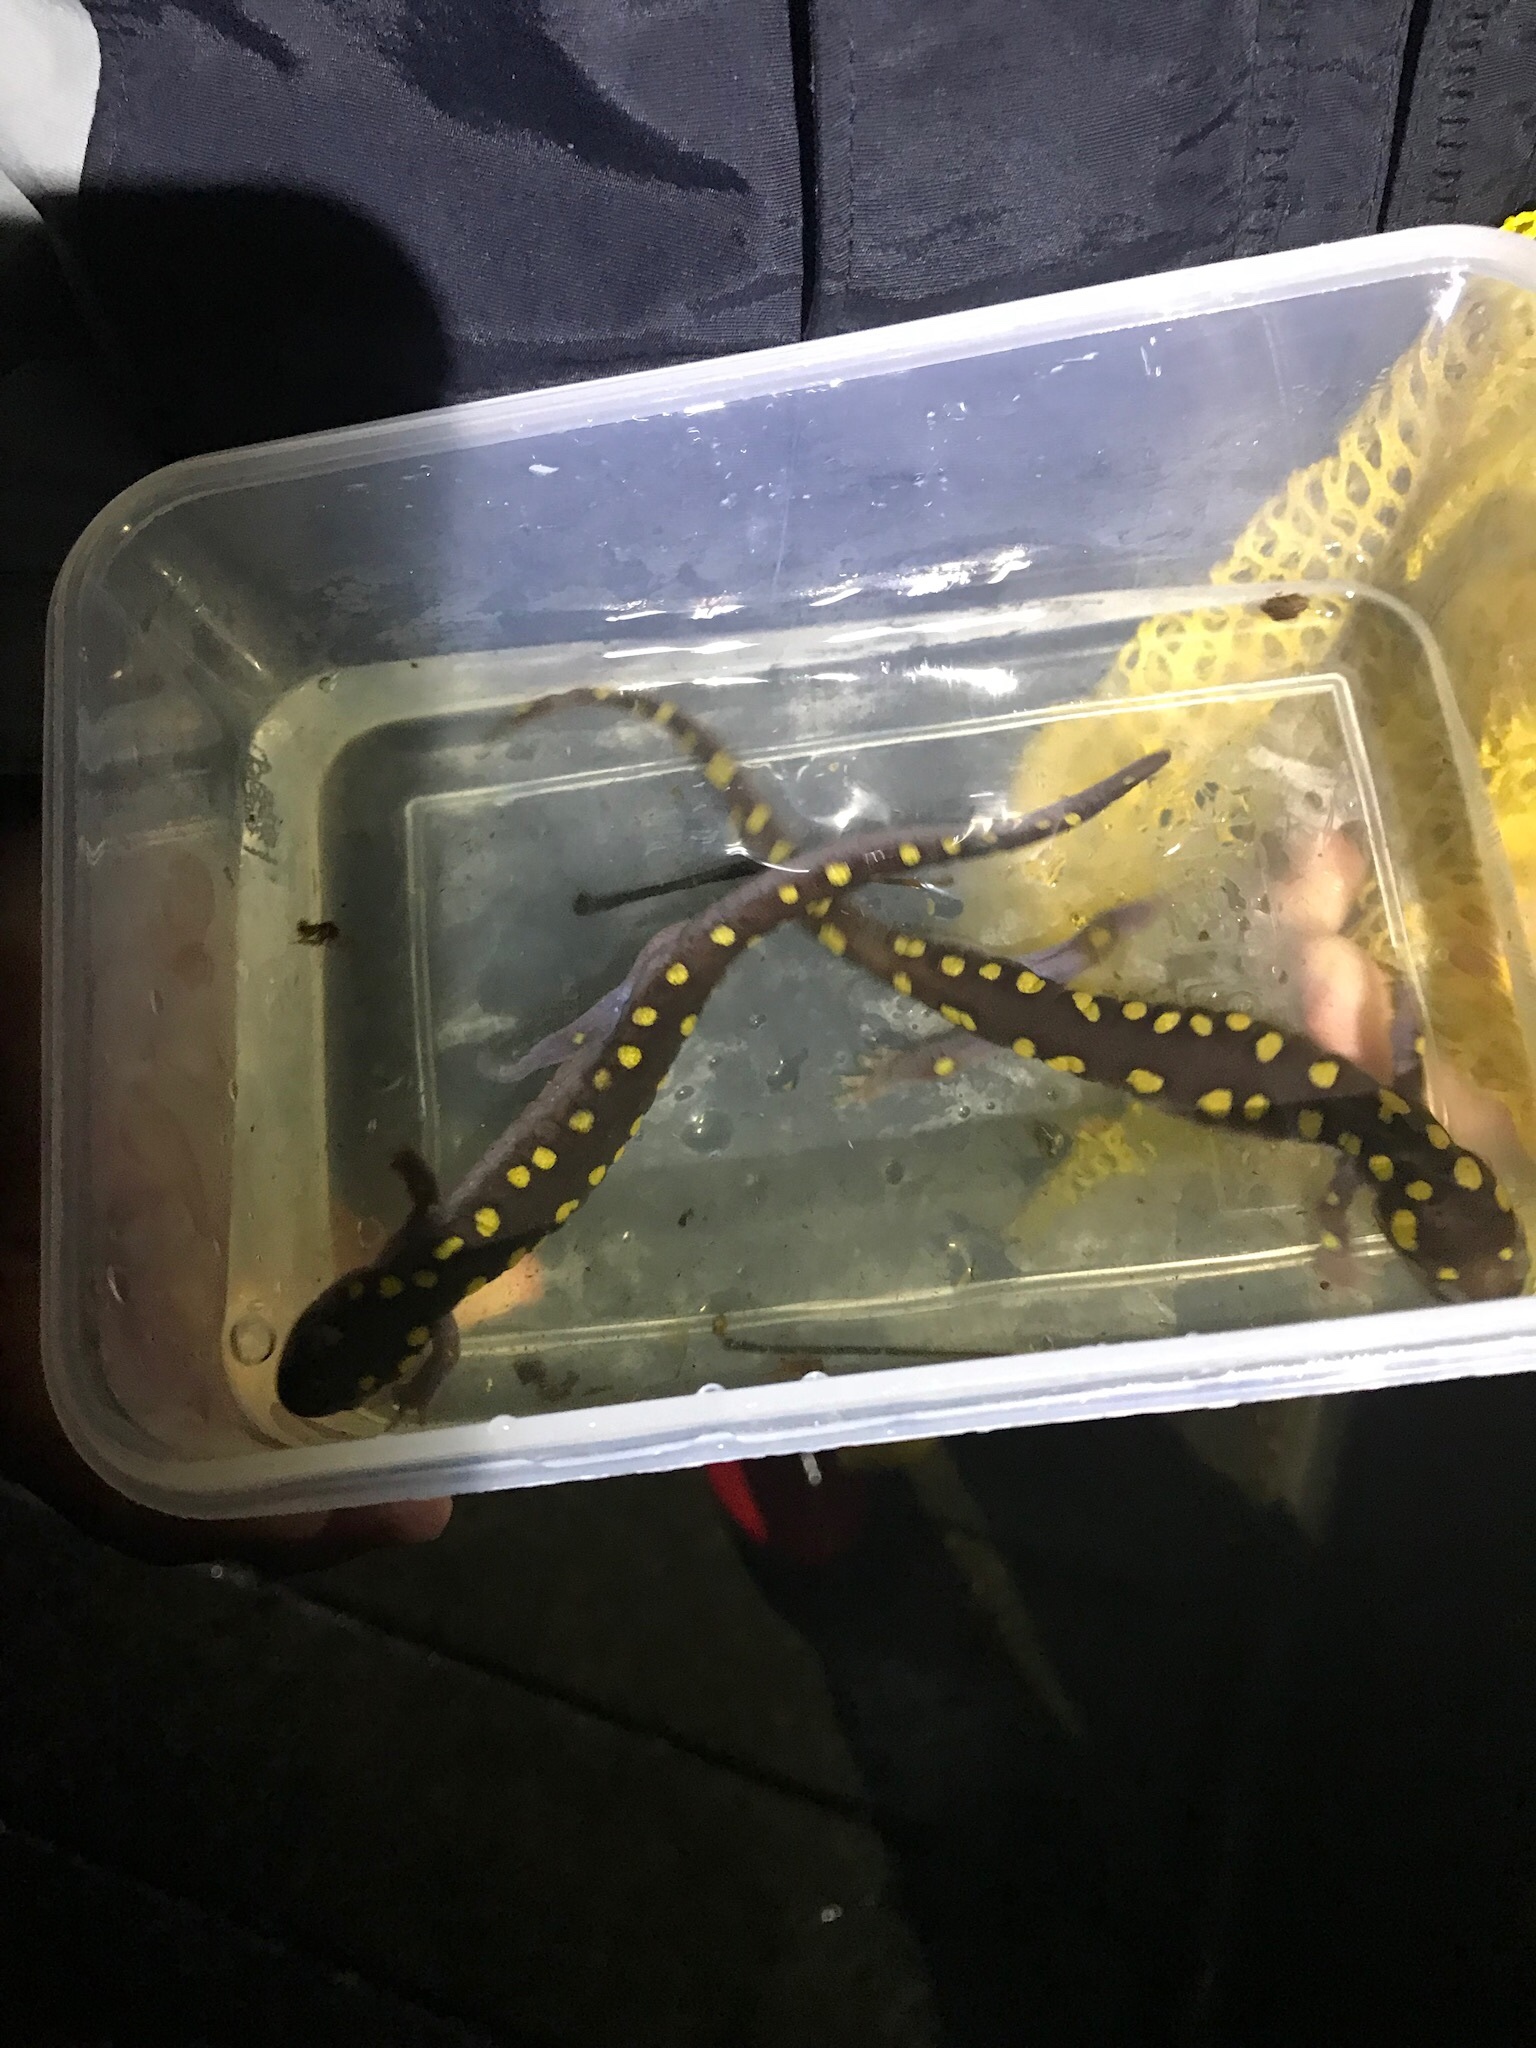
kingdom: Animalia
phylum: Chordata
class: Amphibia
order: Caudata
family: Ambystomatidae
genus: Ambystoma
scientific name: Ambystoma maculatum
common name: Spotted salamander
